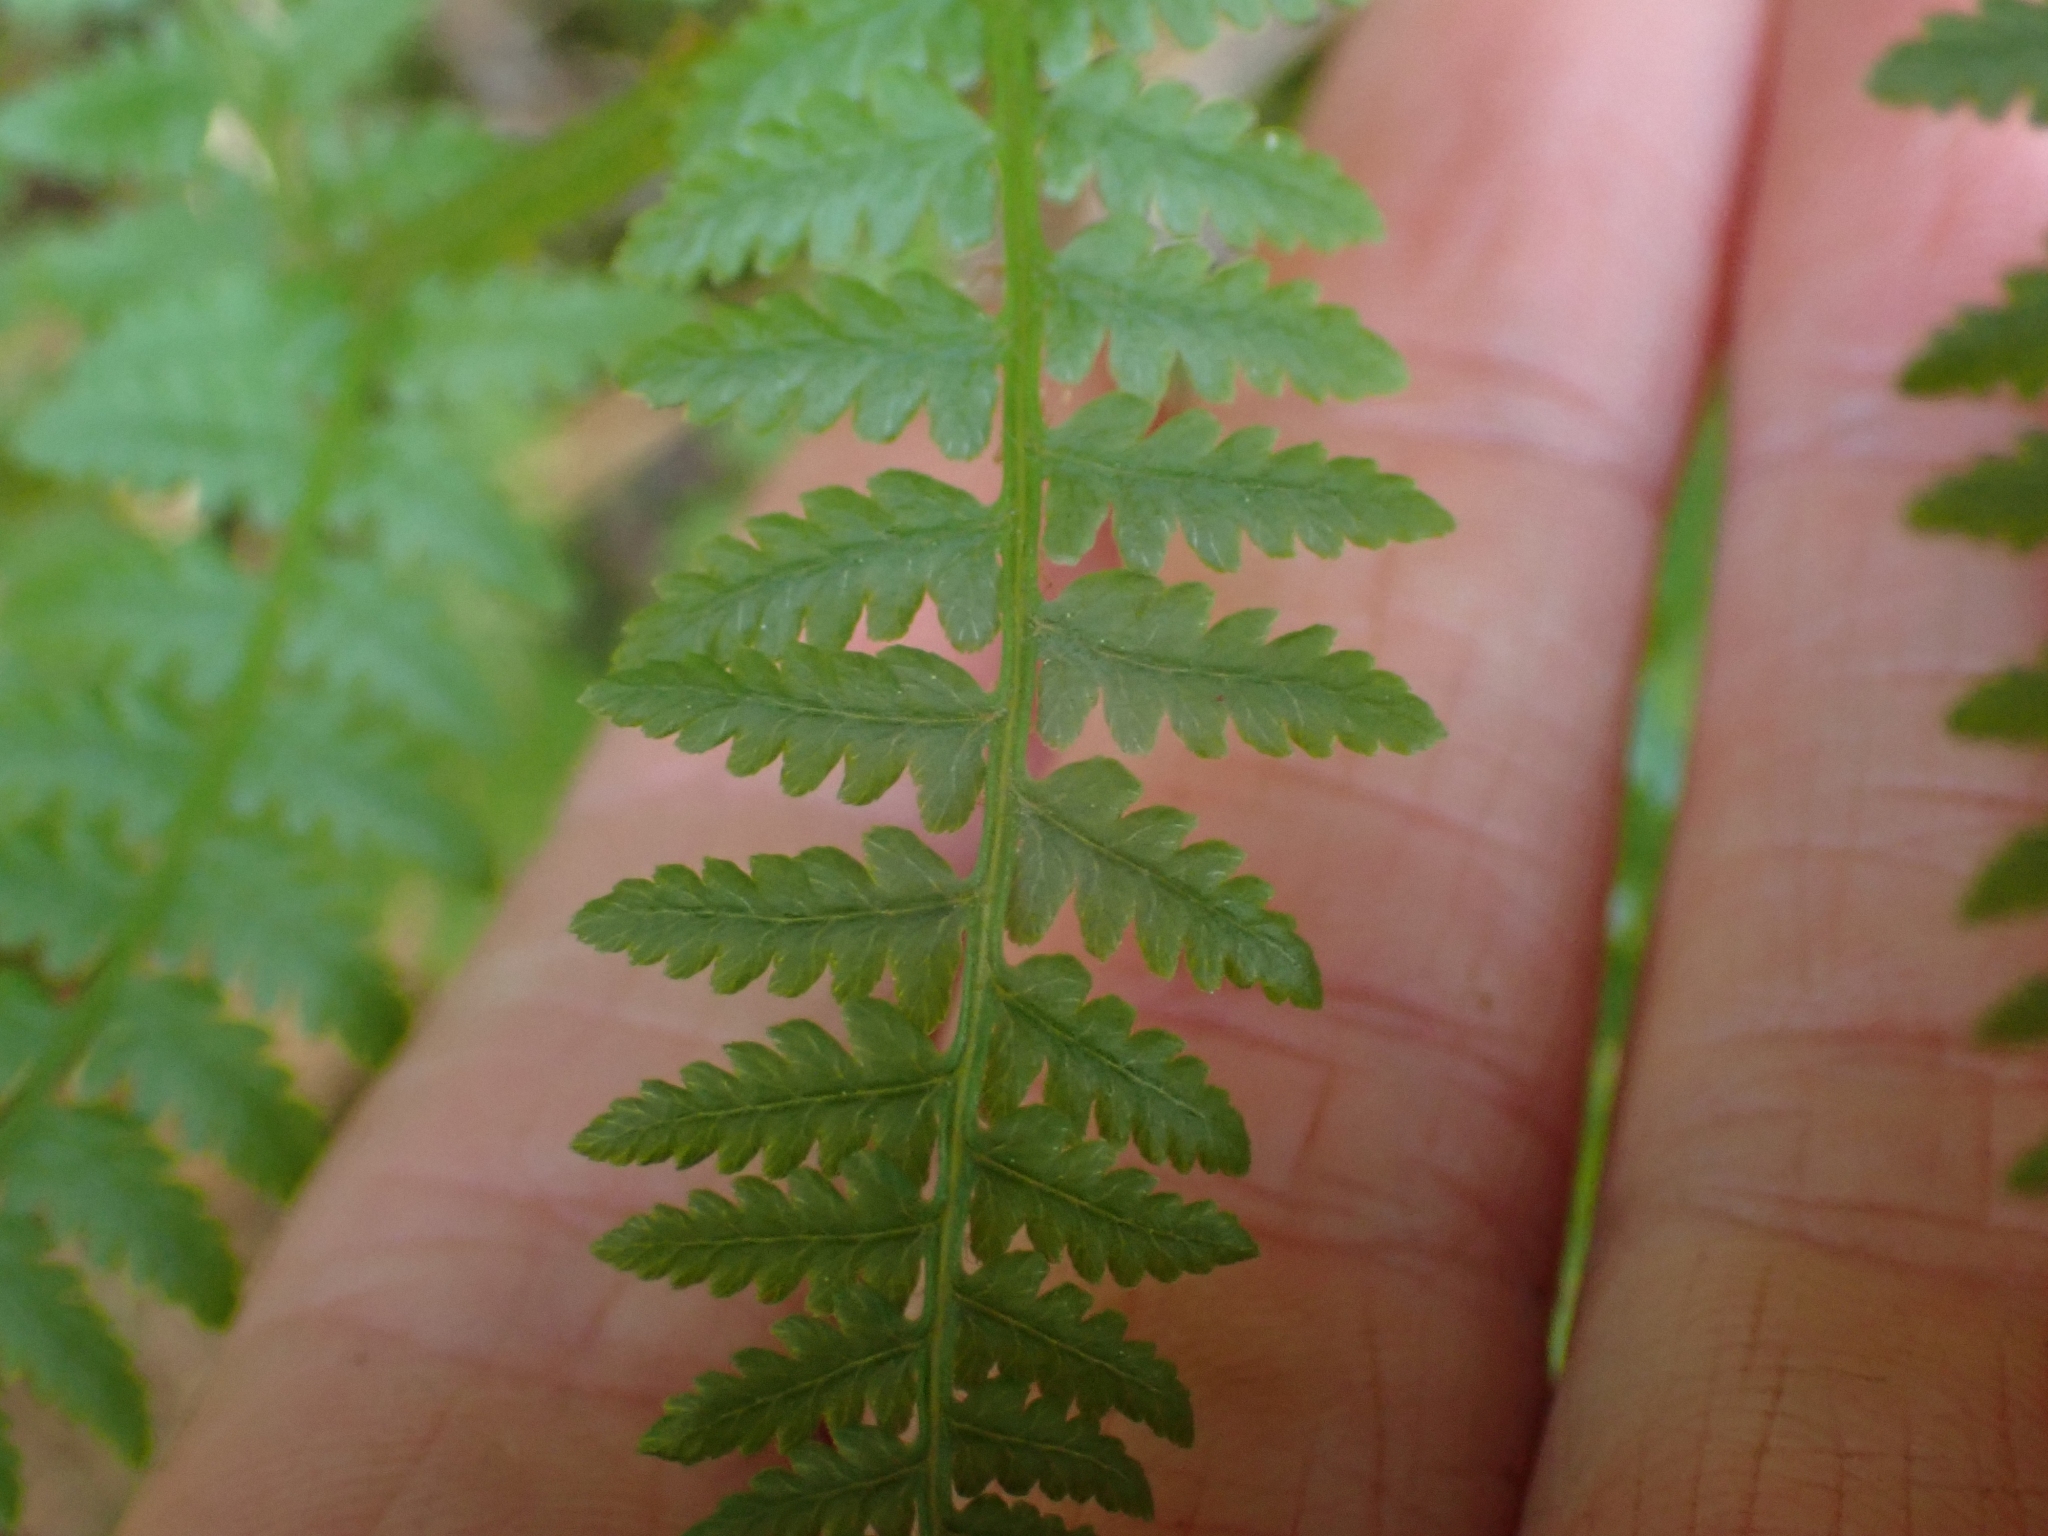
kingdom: Plantae
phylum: Tracheophyta
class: Polypodiopsida
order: Polypodiales
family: Athyriaceae
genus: Athyrium
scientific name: Athyrium filix-femina
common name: Lady fern
